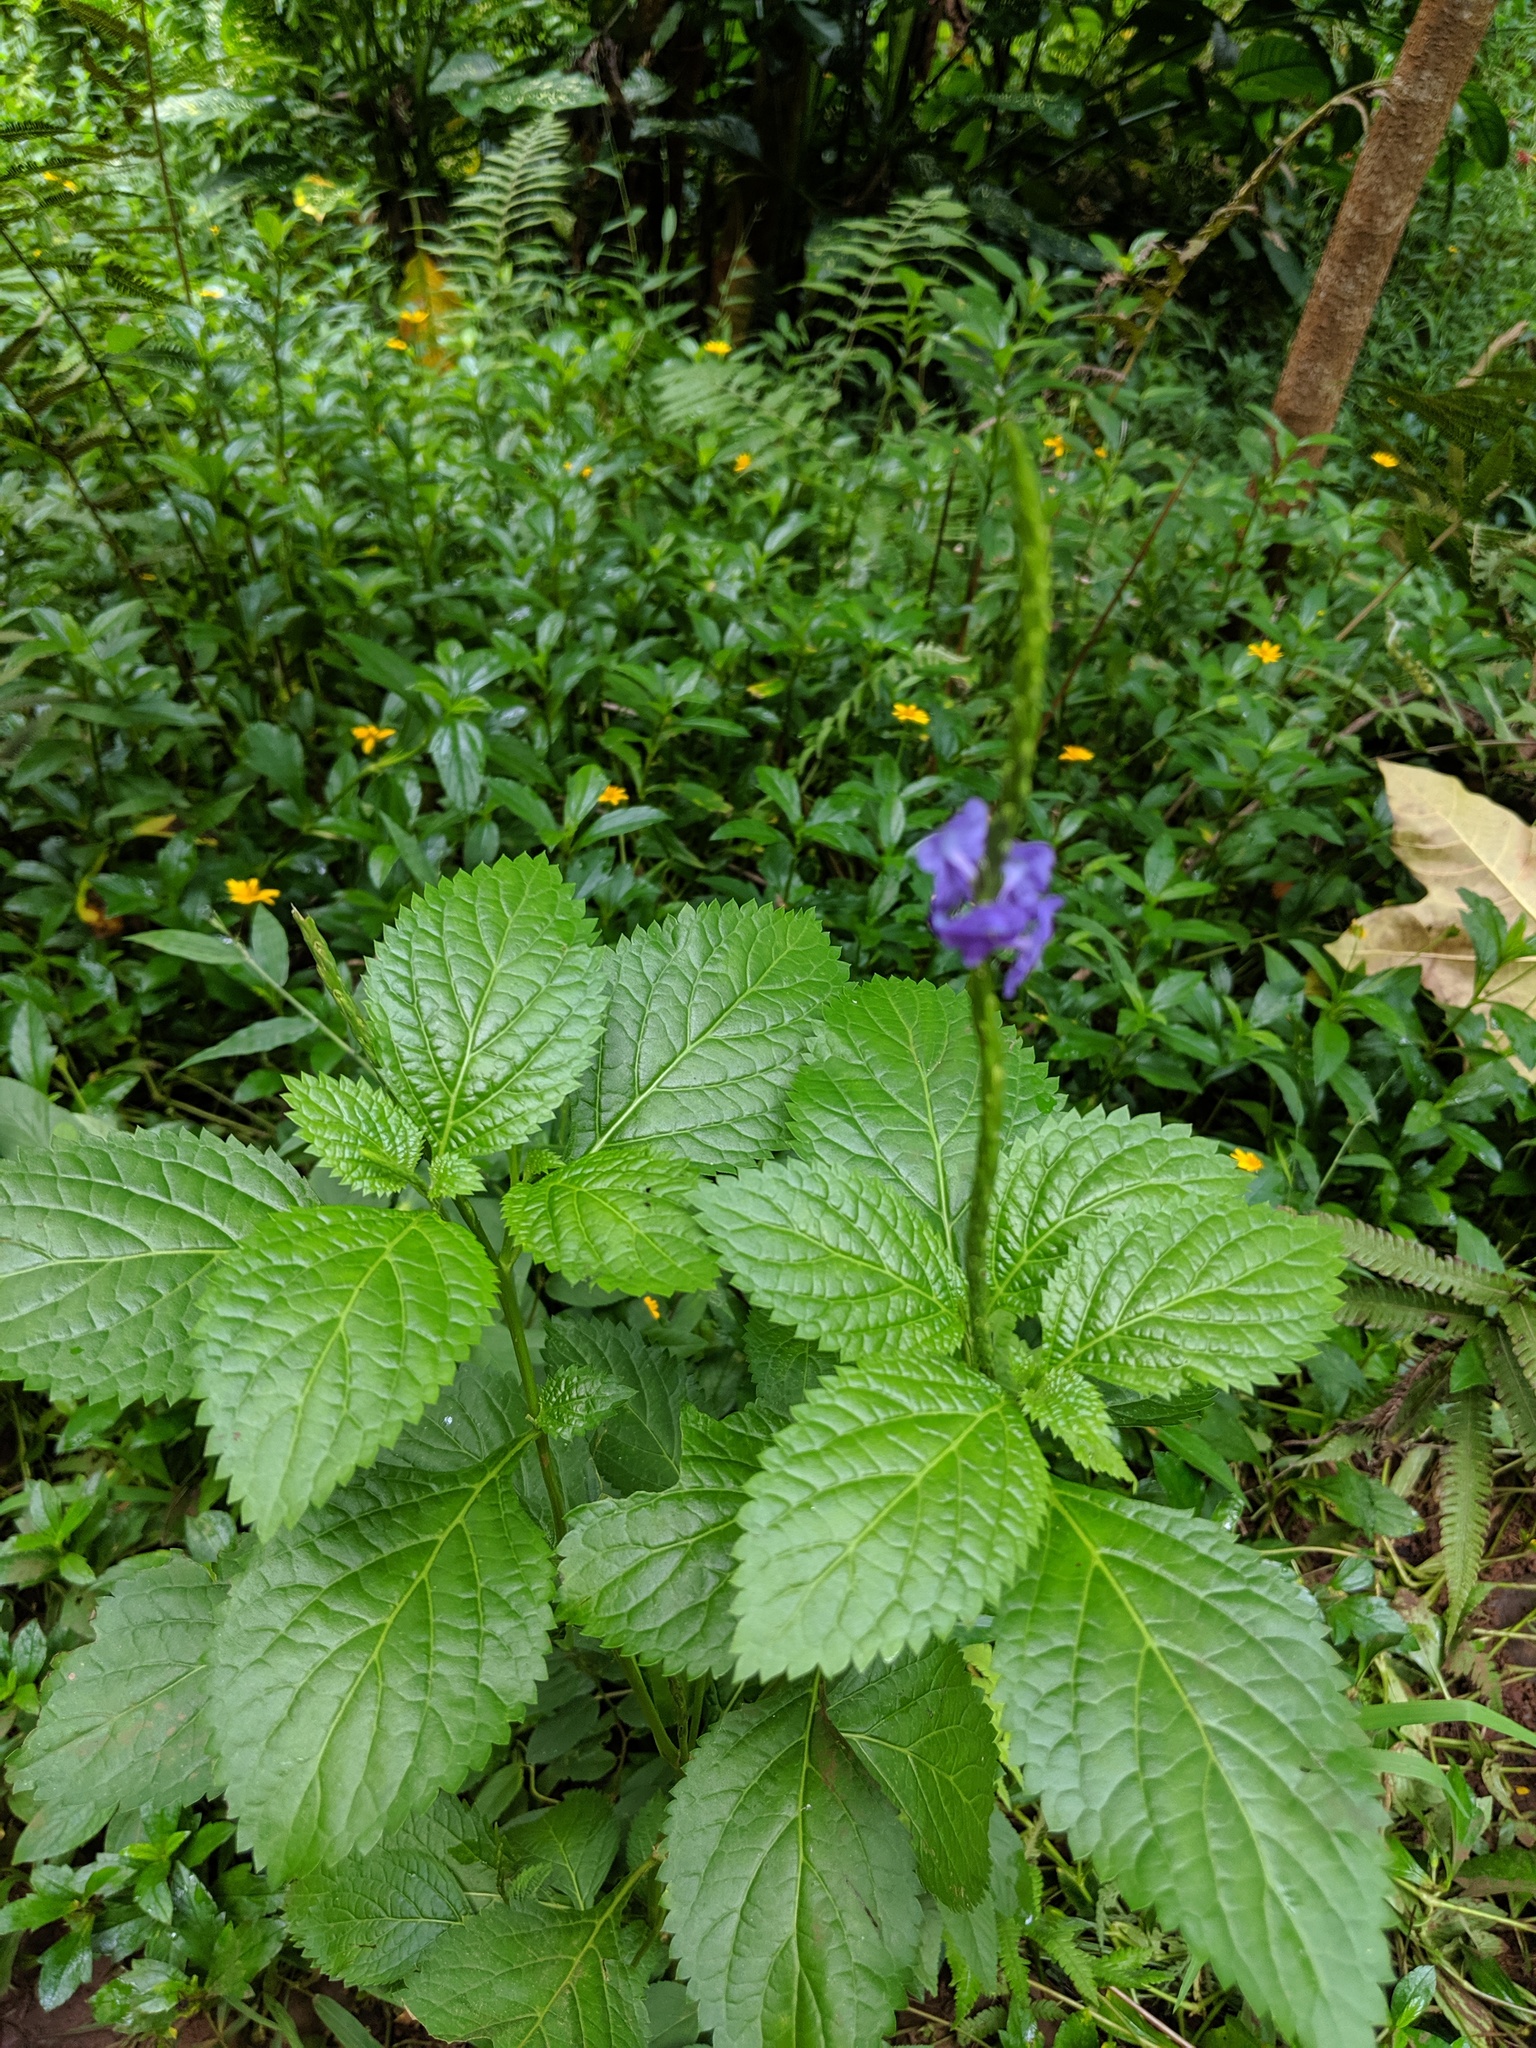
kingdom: Plantae
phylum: Tracheophyta
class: Magnoliopsida
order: Lamiales
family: Verbenaceae
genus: Stachytarpheta
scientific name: Stachytarpheta cayennensis
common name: Cayenne porterweed
